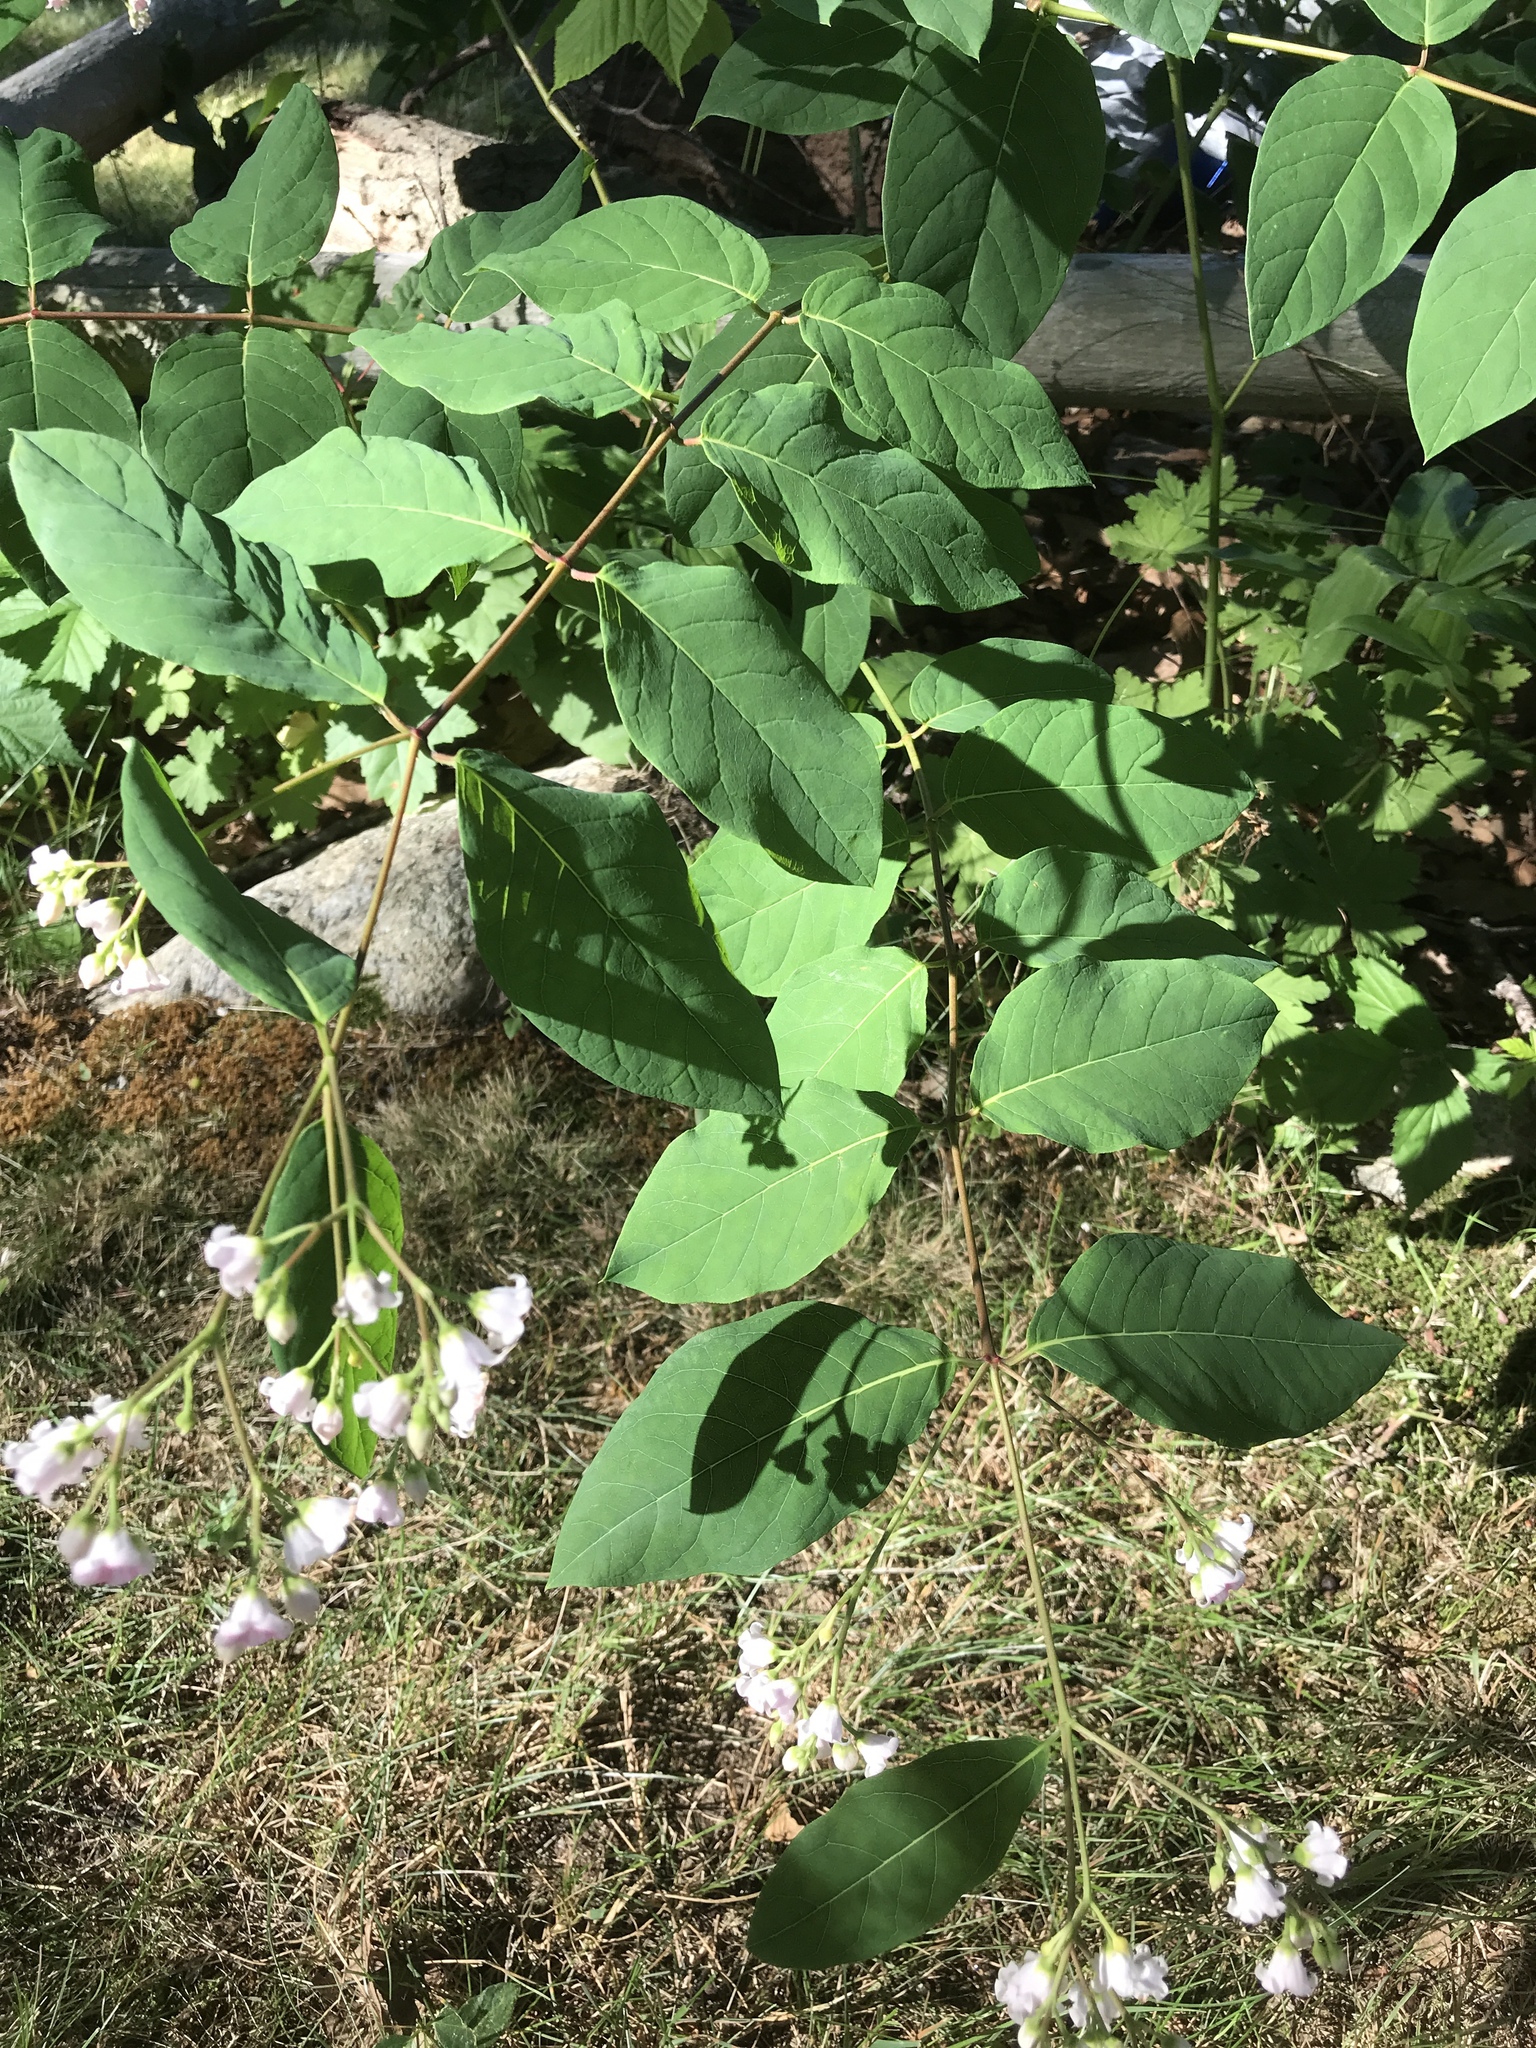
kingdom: Plantae
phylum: Tracheophyta
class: Magnoliopsida
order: Gentianales
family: Apocynaceae
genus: Apocynum
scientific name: Apocynum androsaemifolium
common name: Spreading dogbane
